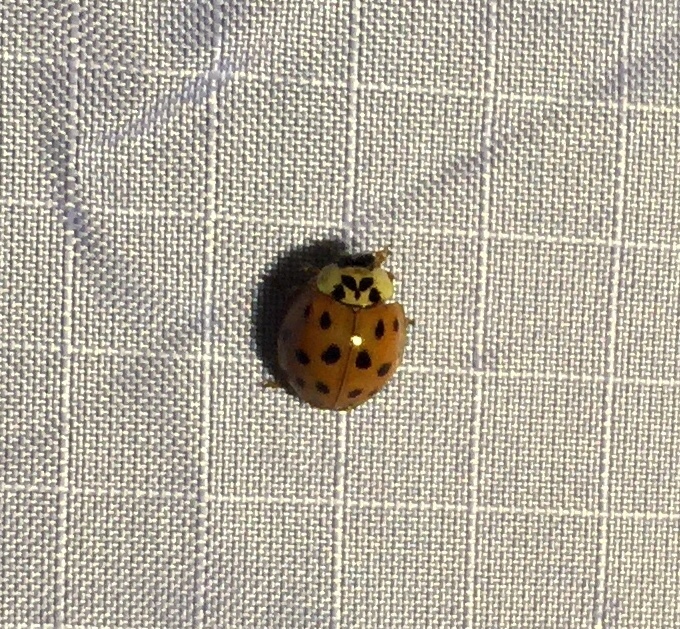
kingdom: Animalia
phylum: Arthropoda
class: Insecta
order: Coleoptera
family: Coccinellidae
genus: Harmonia
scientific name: Harmonia axyridis
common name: Harlequin ladybird
